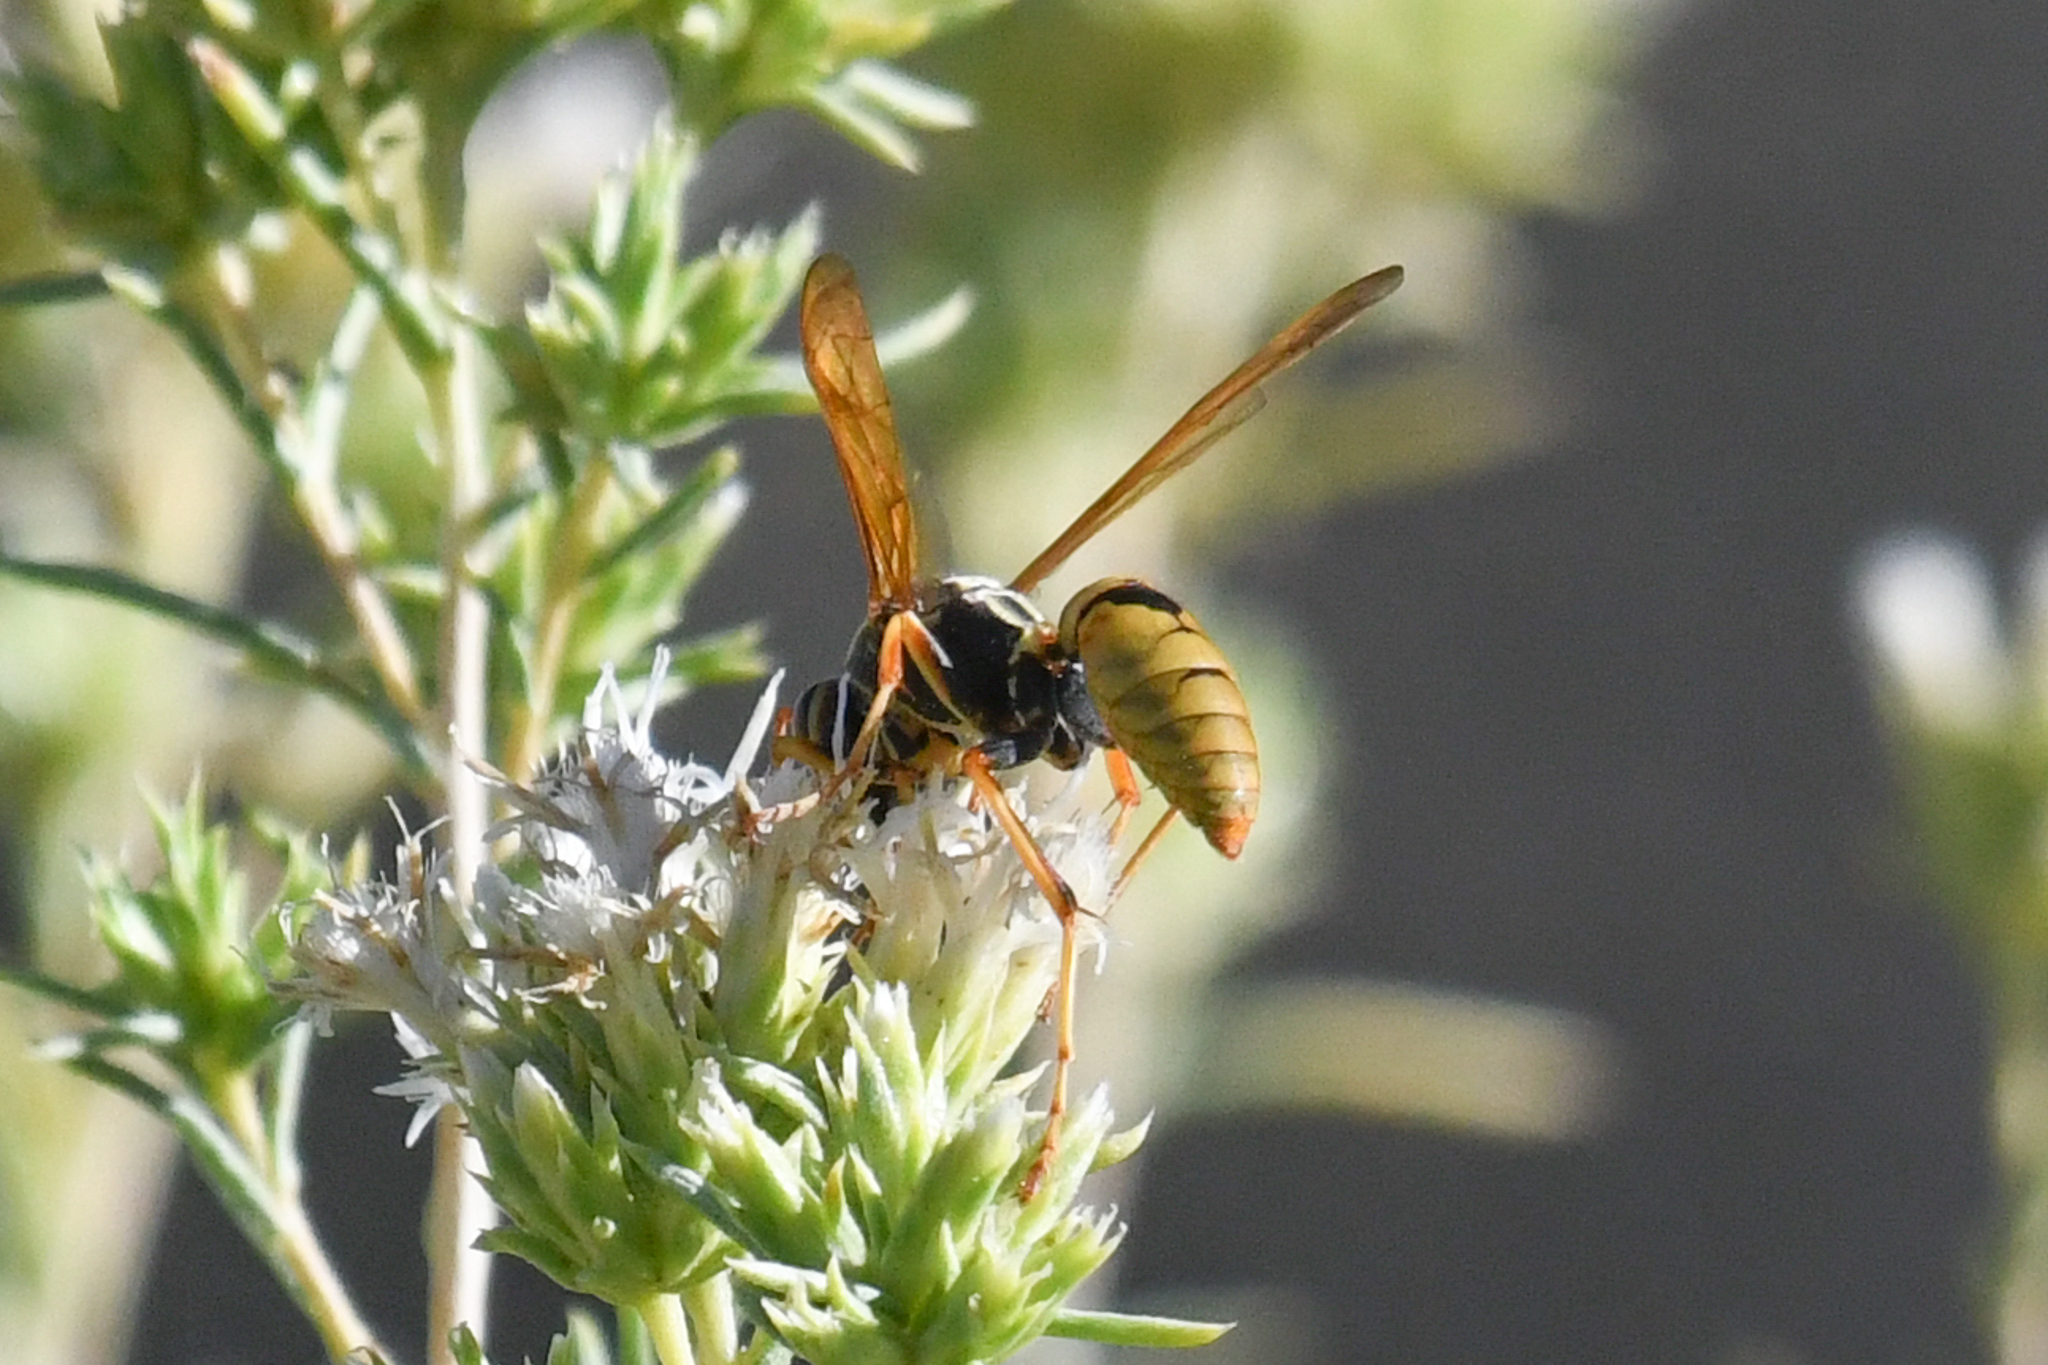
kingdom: Animalia
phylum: Arthropoda
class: Insecta
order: Hymenoptera
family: Eumenidae
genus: Polistes
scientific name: Polistes aurifer
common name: Paper wasp
